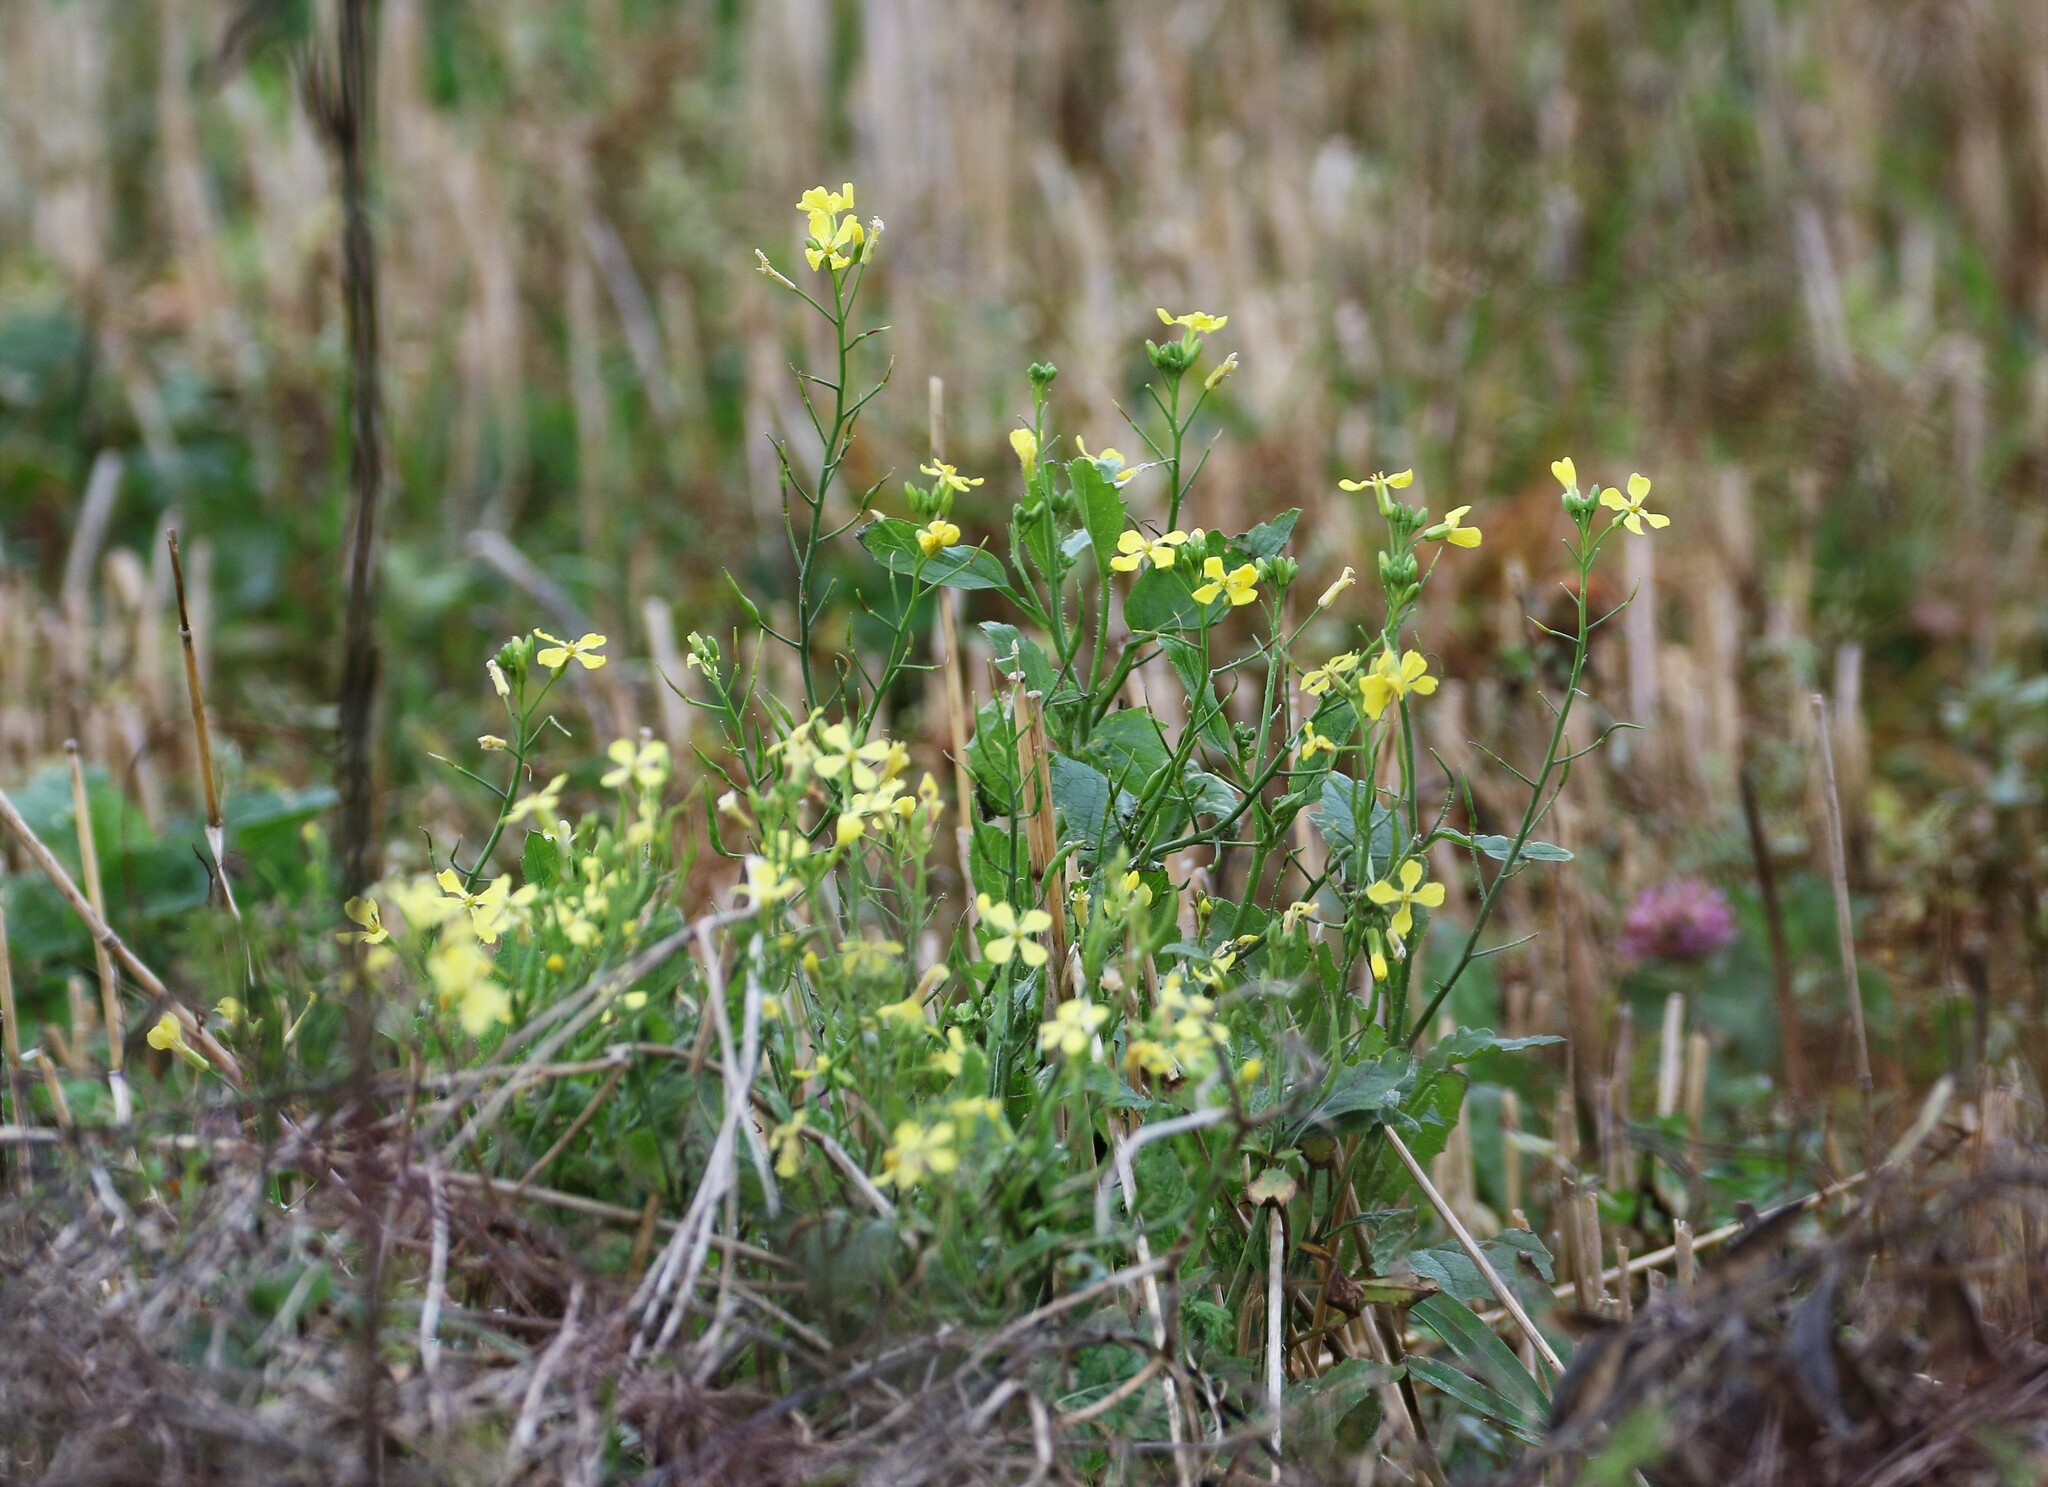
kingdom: Plantae
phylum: Tracheophyta
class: Magnoliopsida
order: Brassicales
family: Brassicaceae
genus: Raphanus
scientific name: Raphanus raphanistrum
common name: Wild radish
